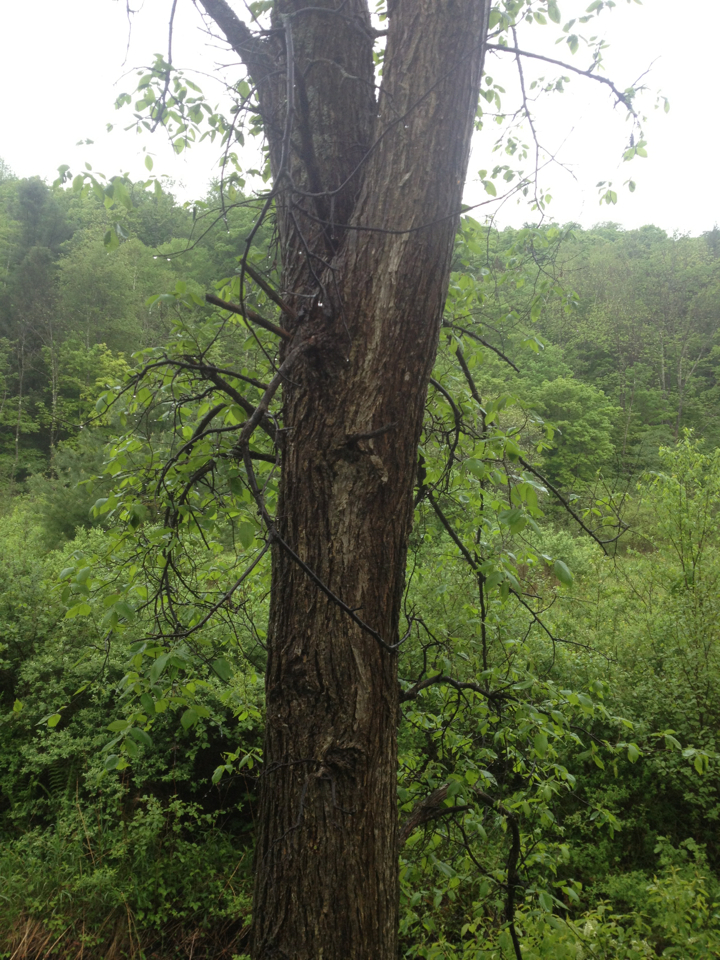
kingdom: Plantae
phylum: Tracheophyta
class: Magnoliopsida
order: Rosales
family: Ulmaceae
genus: Ulmus
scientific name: Ulmus americana
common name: American elm
